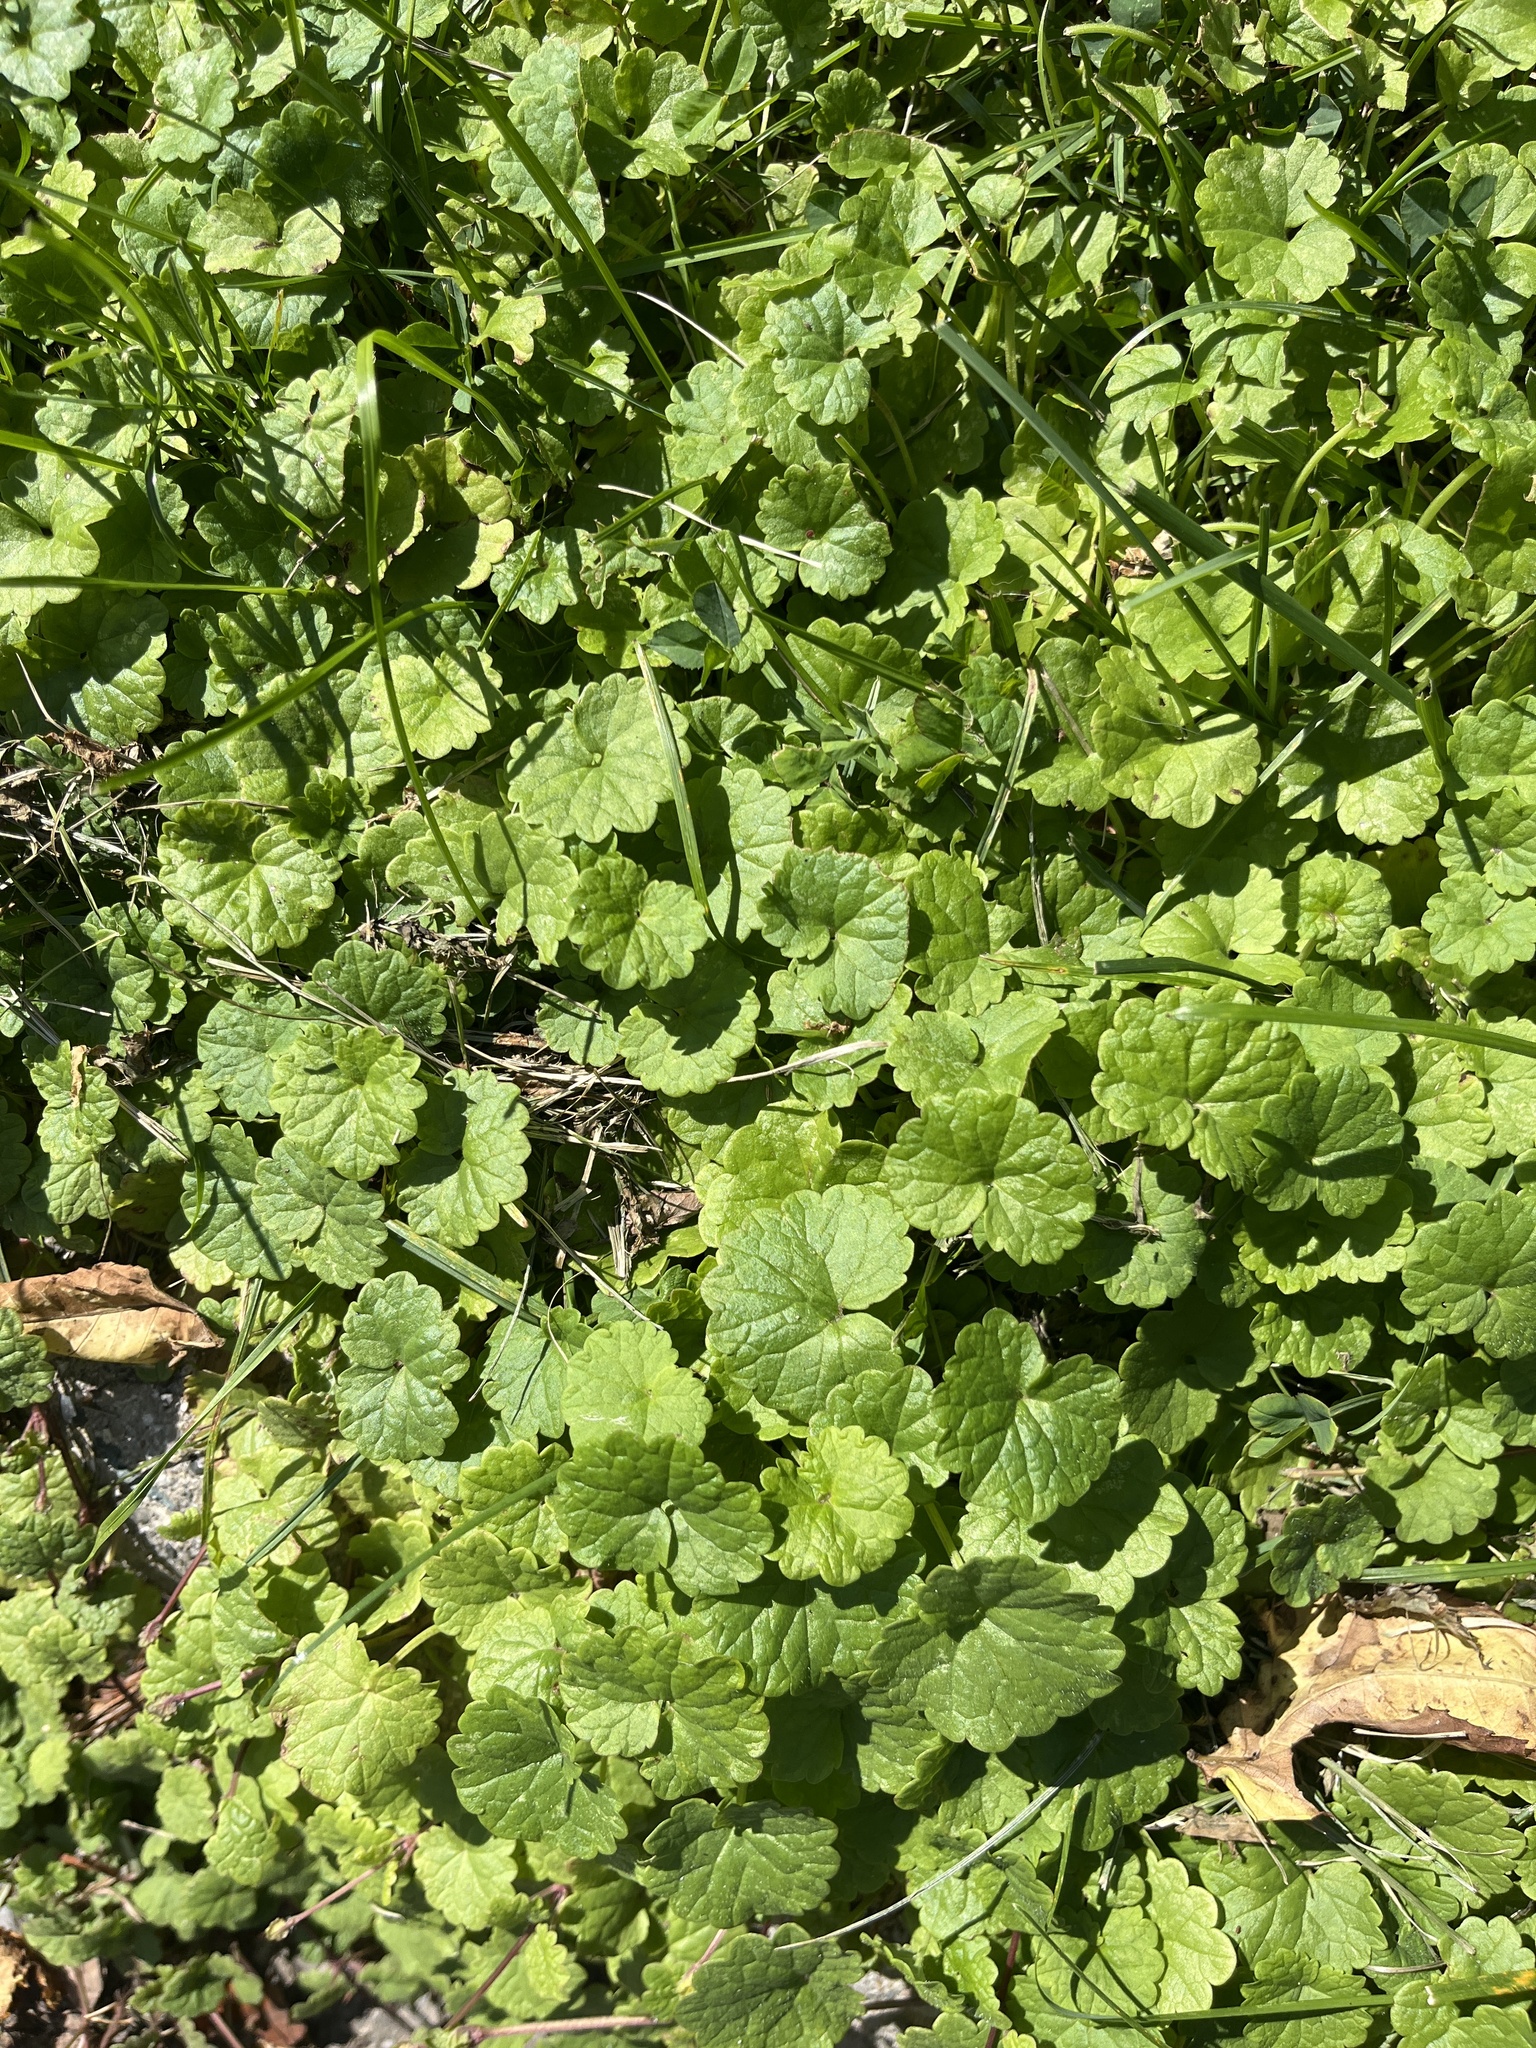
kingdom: Plantae
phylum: Tracheophyta
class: Magnoliopsida
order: Lamiales
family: Lamiaceae
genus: Glechoma
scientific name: Glechoma hederacea
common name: Ground ivy
